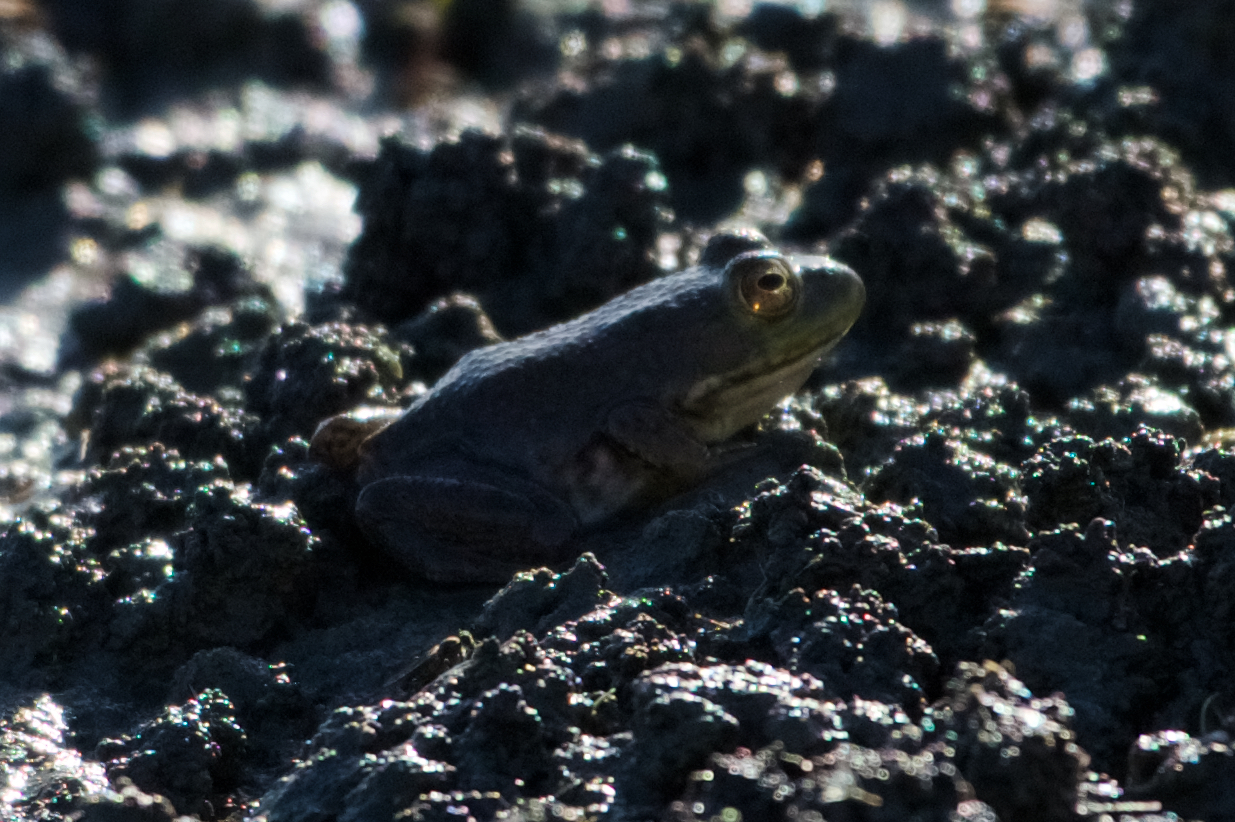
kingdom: Animalia
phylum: Chordata
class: Amphibia
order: Anura
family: Ranidae
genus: Lithobates
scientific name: Lithobates catesbeianus
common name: American bullfrog
